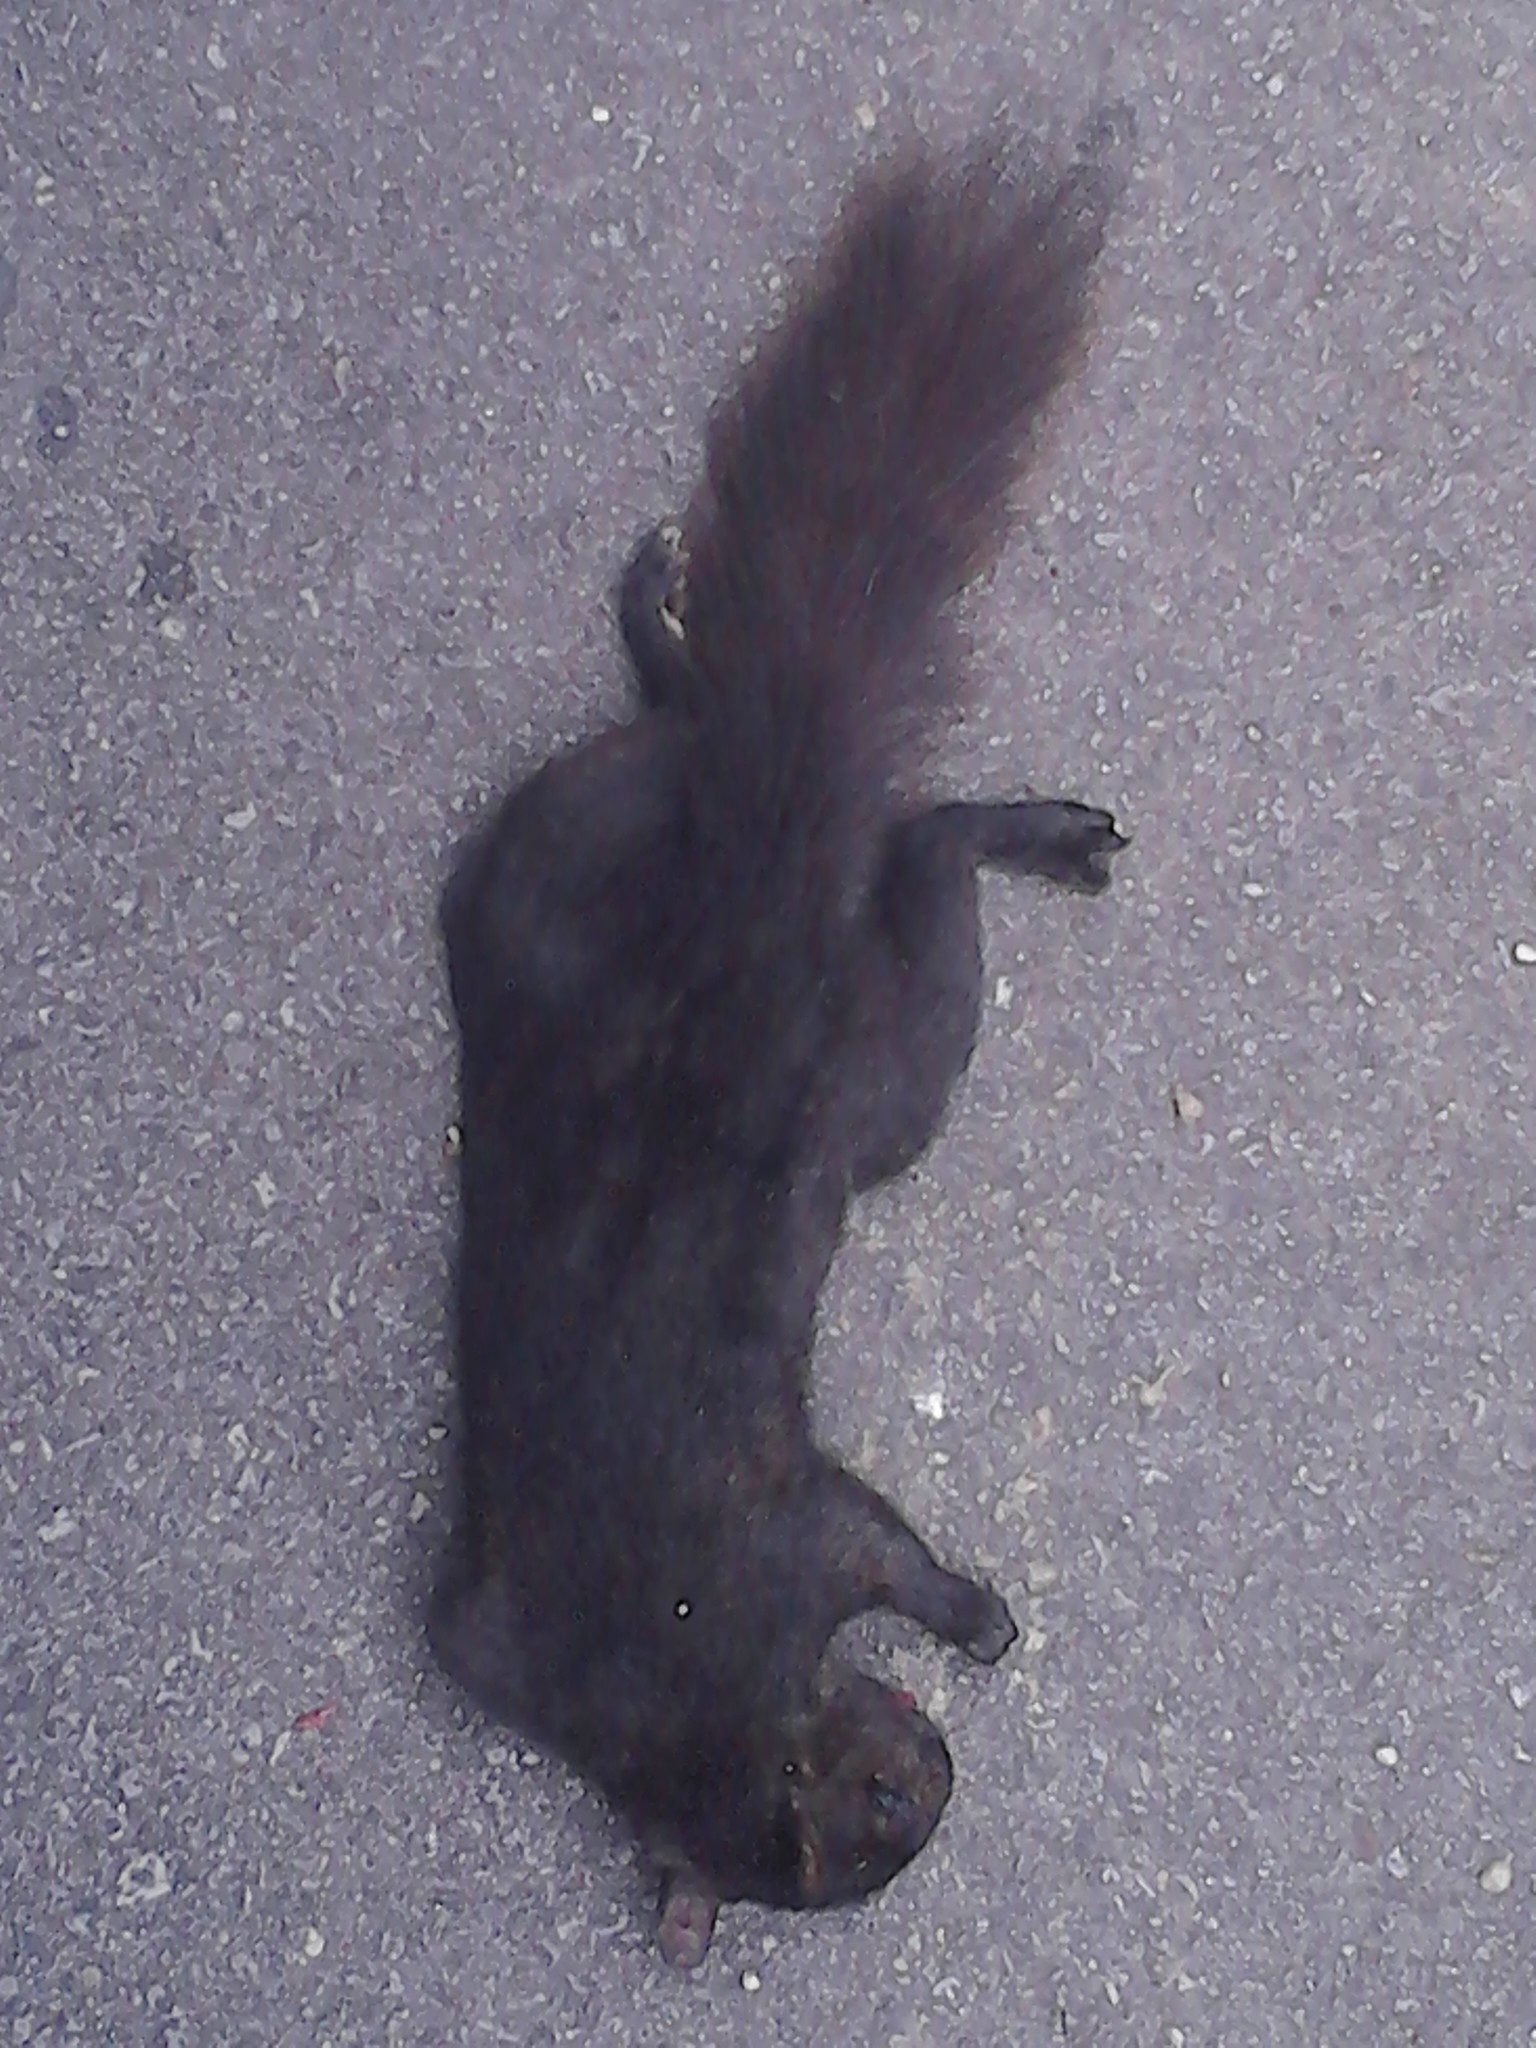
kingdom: Animalia
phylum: Chordata
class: Mammalia
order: Rodentia
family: Sciuridae
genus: Sciurus
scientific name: Sciurus carolinensis
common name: Eastern gray squirrel
